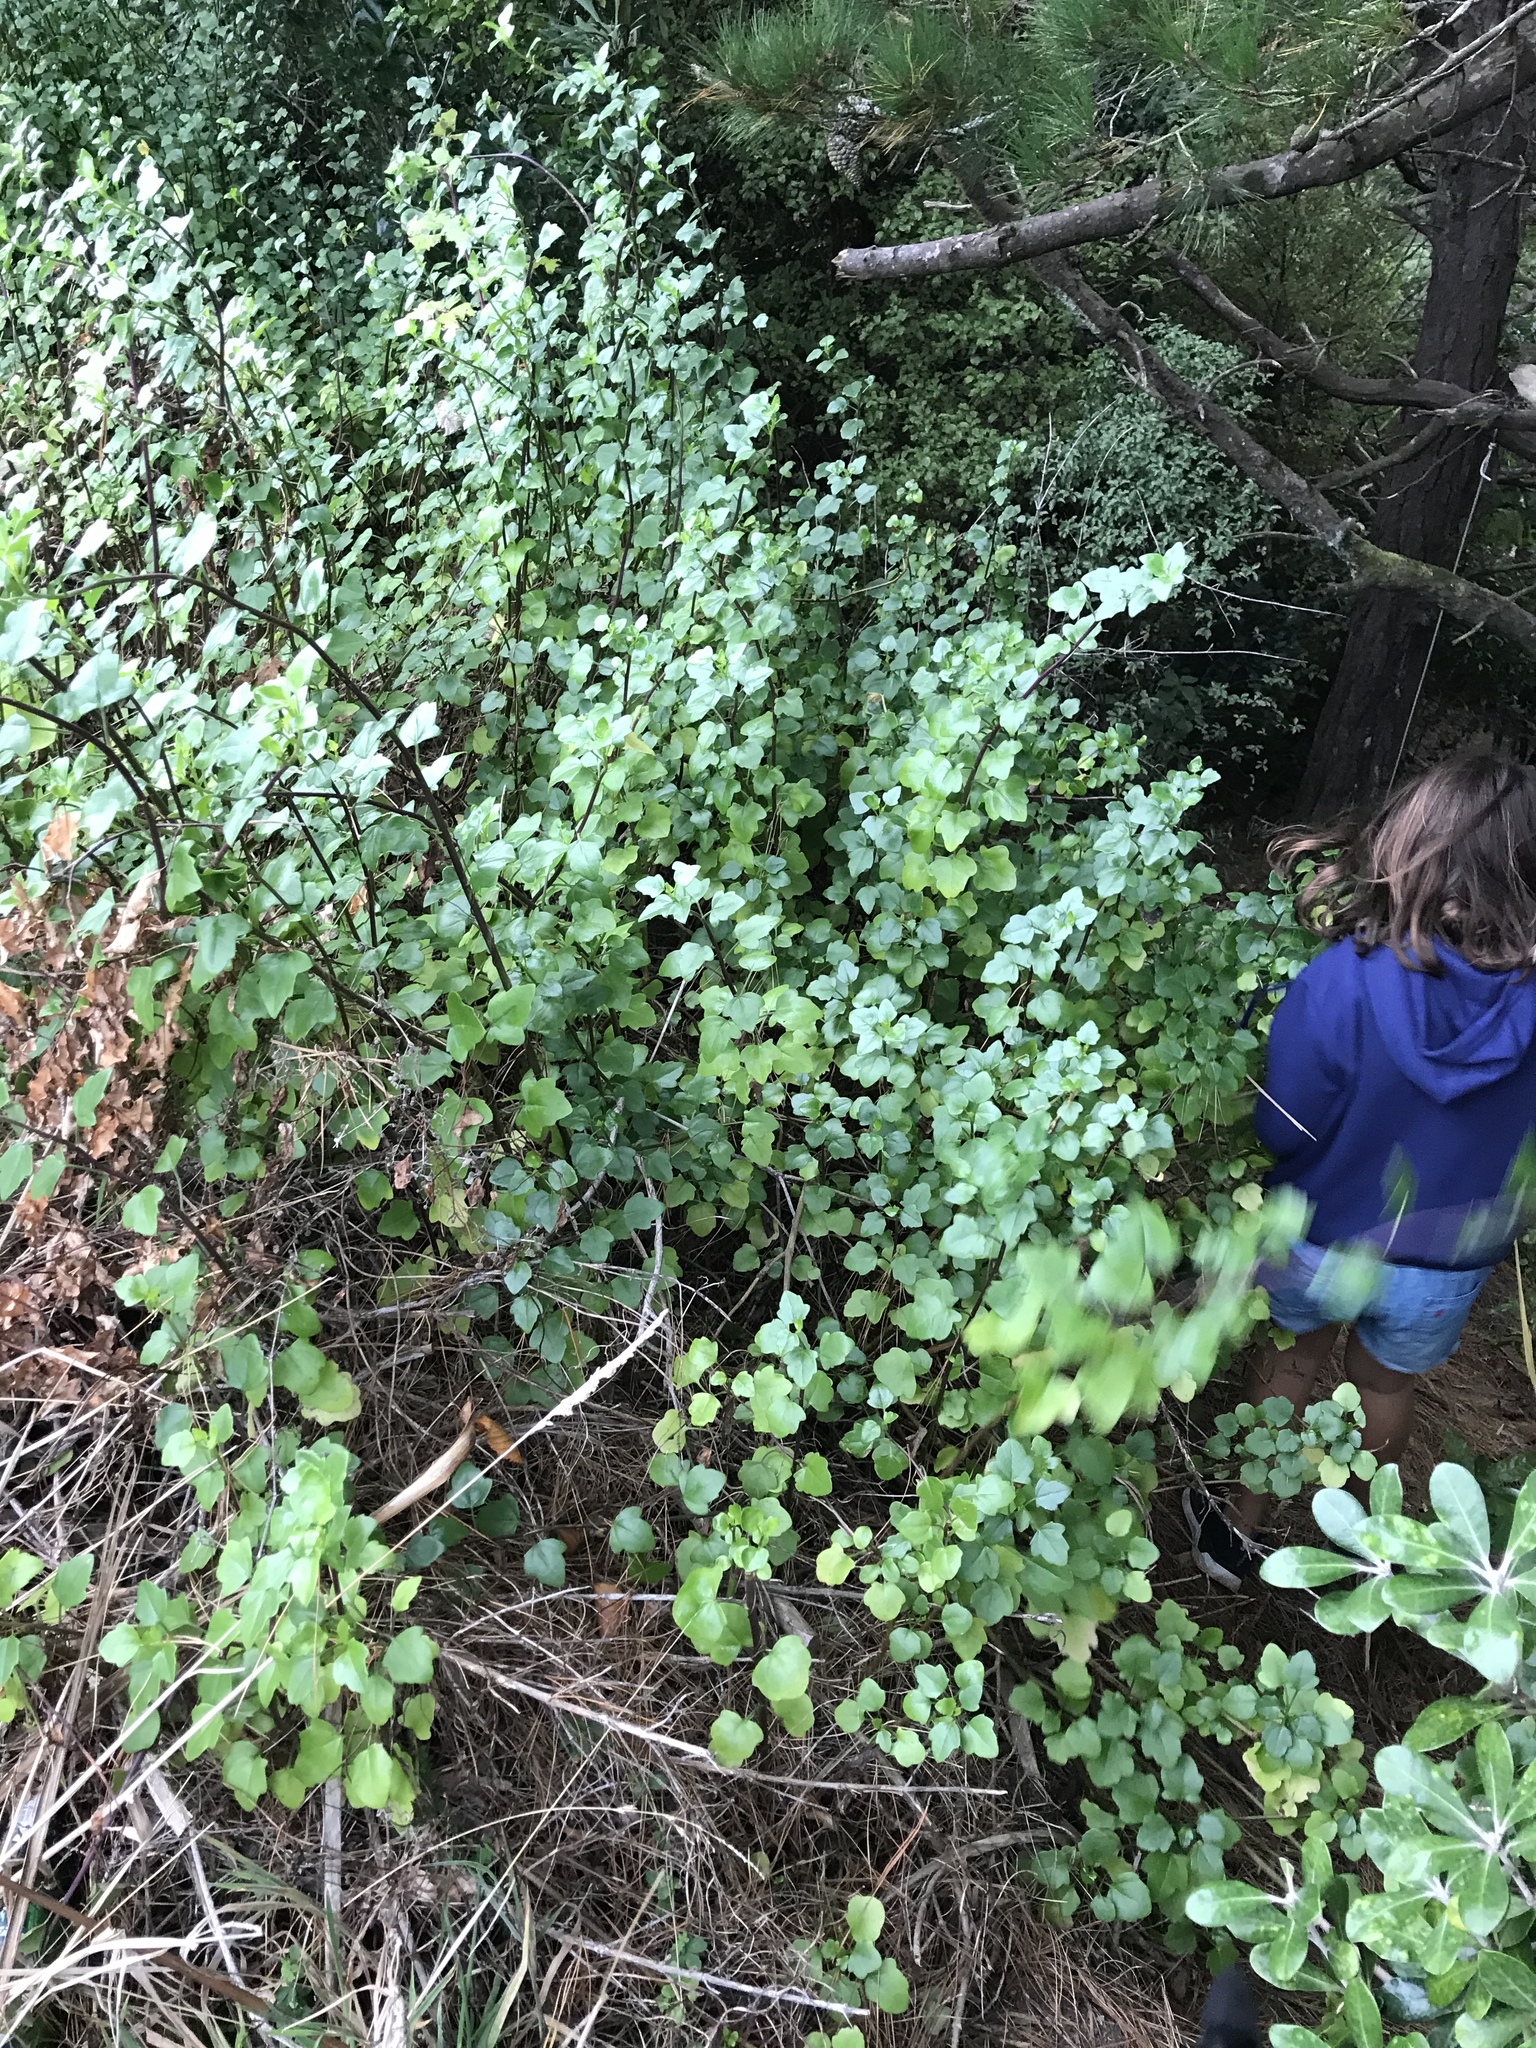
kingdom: Plantae
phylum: Tracheophyta
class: Magnoliopsida
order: Asterales
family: Asteraceae
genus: Senecio
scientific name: Senecio angulatus
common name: Climbing groundsel
